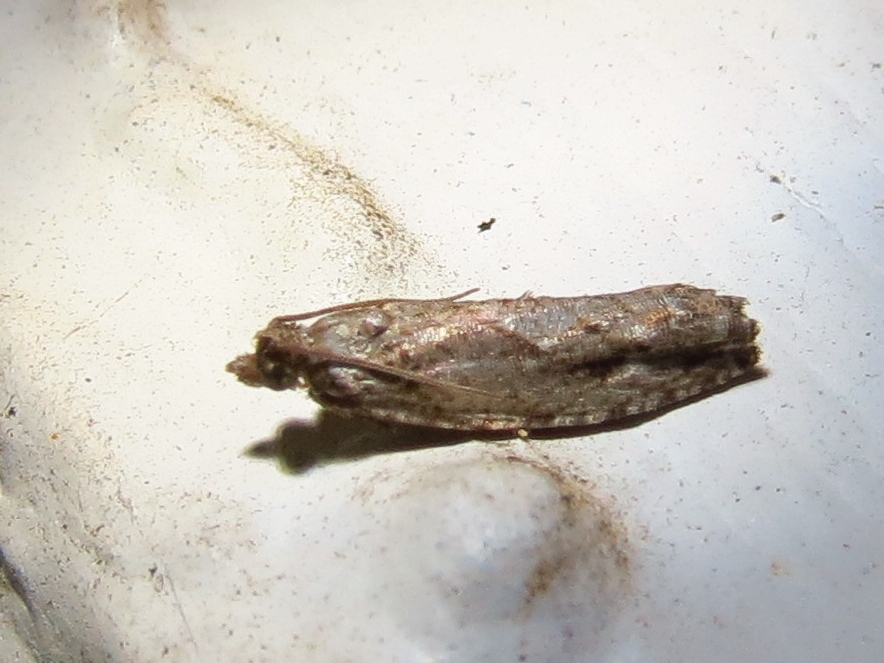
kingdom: Animalia
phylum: Arthropoda
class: Insecta
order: Lepidoptera
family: Tortricidae
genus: Gretchena
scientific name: Gretchena bolliana
